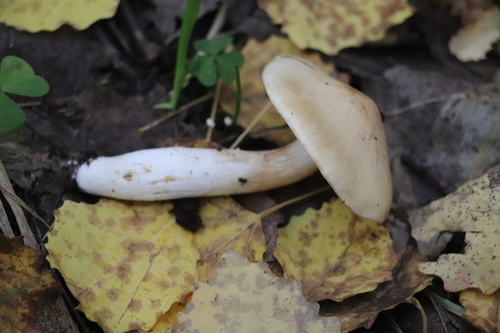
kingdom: Fungi
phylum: Basidiomycota
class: Agaricomycetes
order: Agaricales
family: Cortinariaceae
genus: Phlegmacium
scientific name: Phlegmacium argutum
